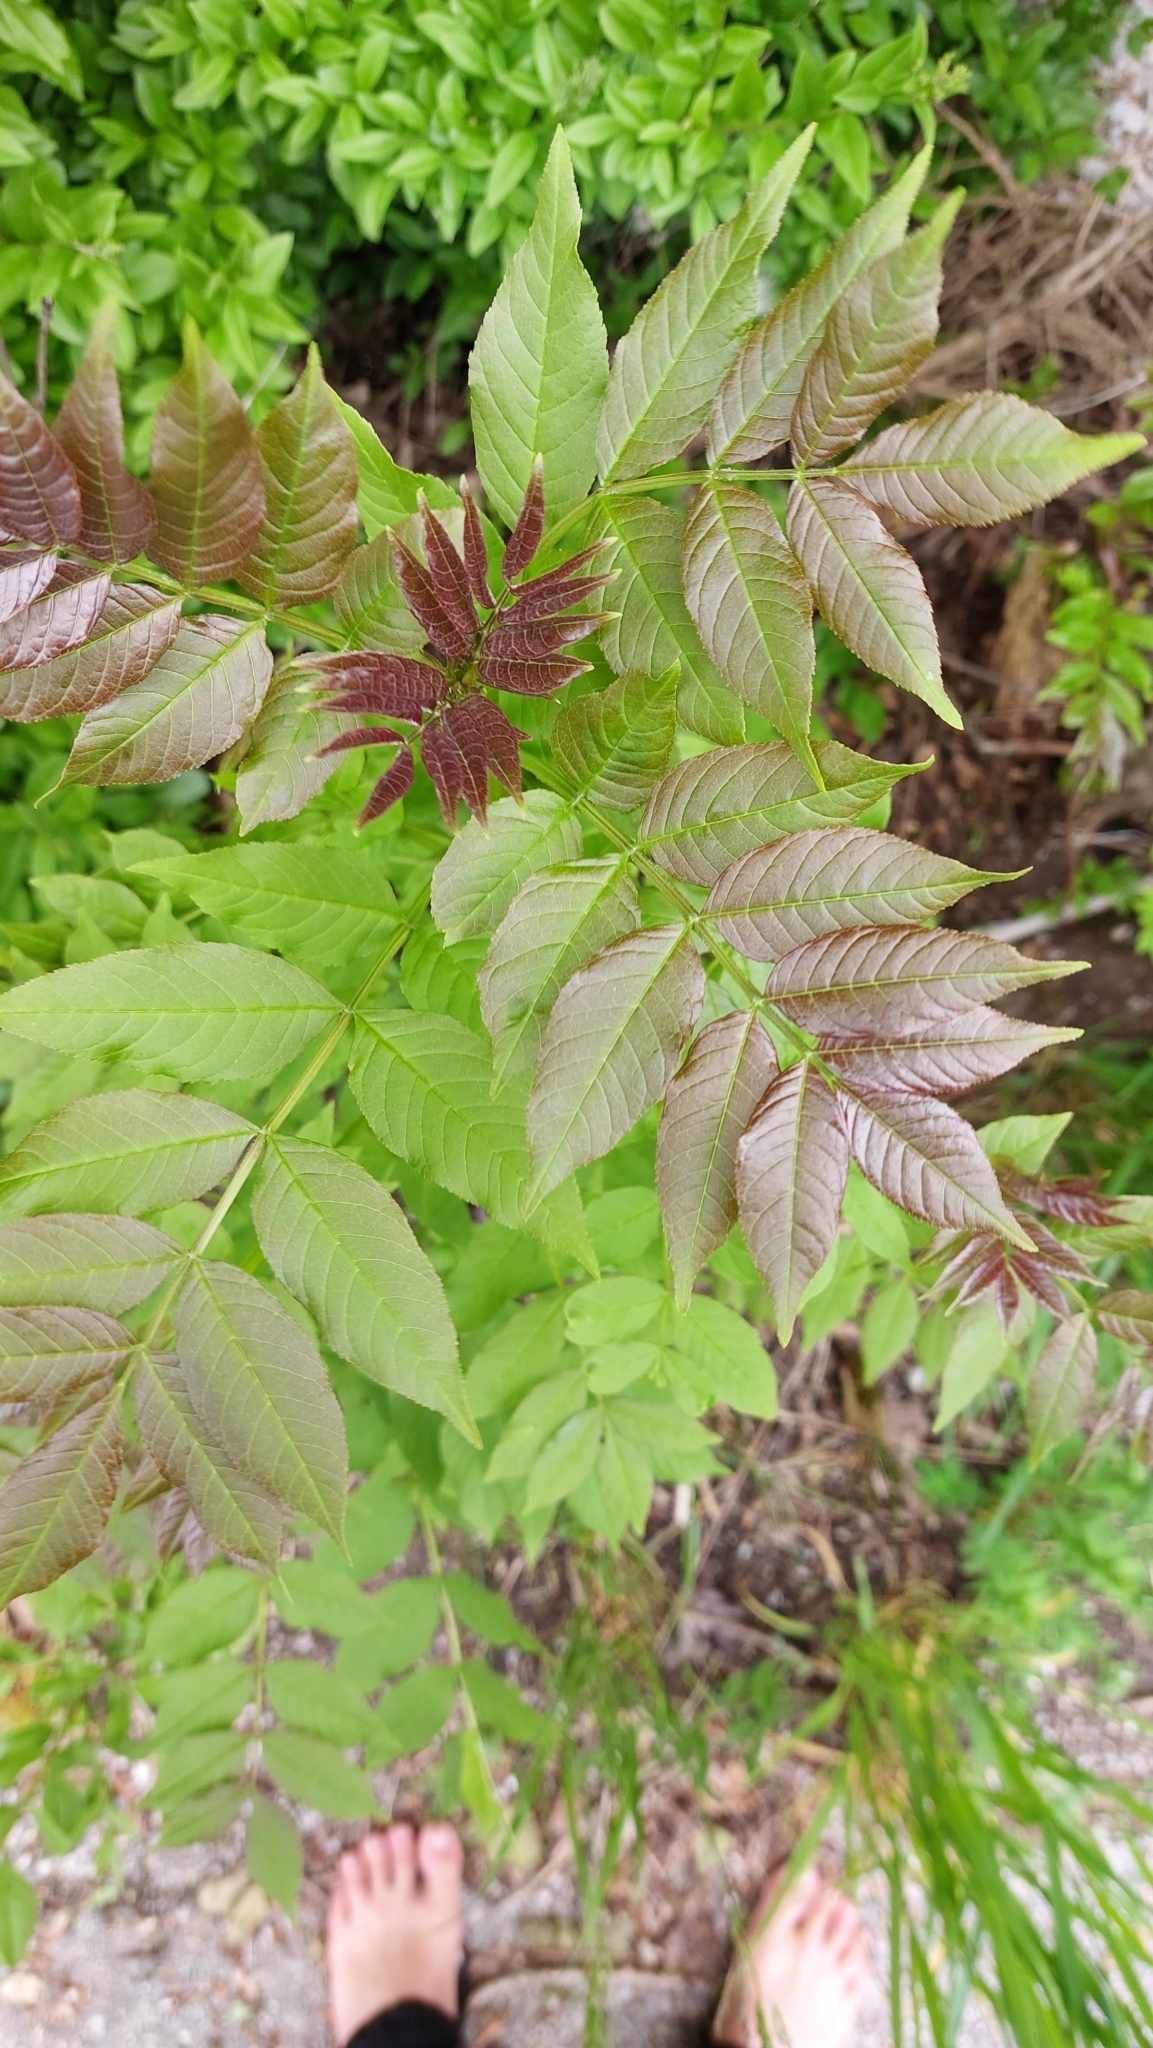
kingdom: Plantae
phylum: Tracheophyta
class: Magnoliopsida
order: Lamiales
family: Oleaceae
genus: Fraxinus
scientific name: Fraxinus excelsior
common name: European ash
